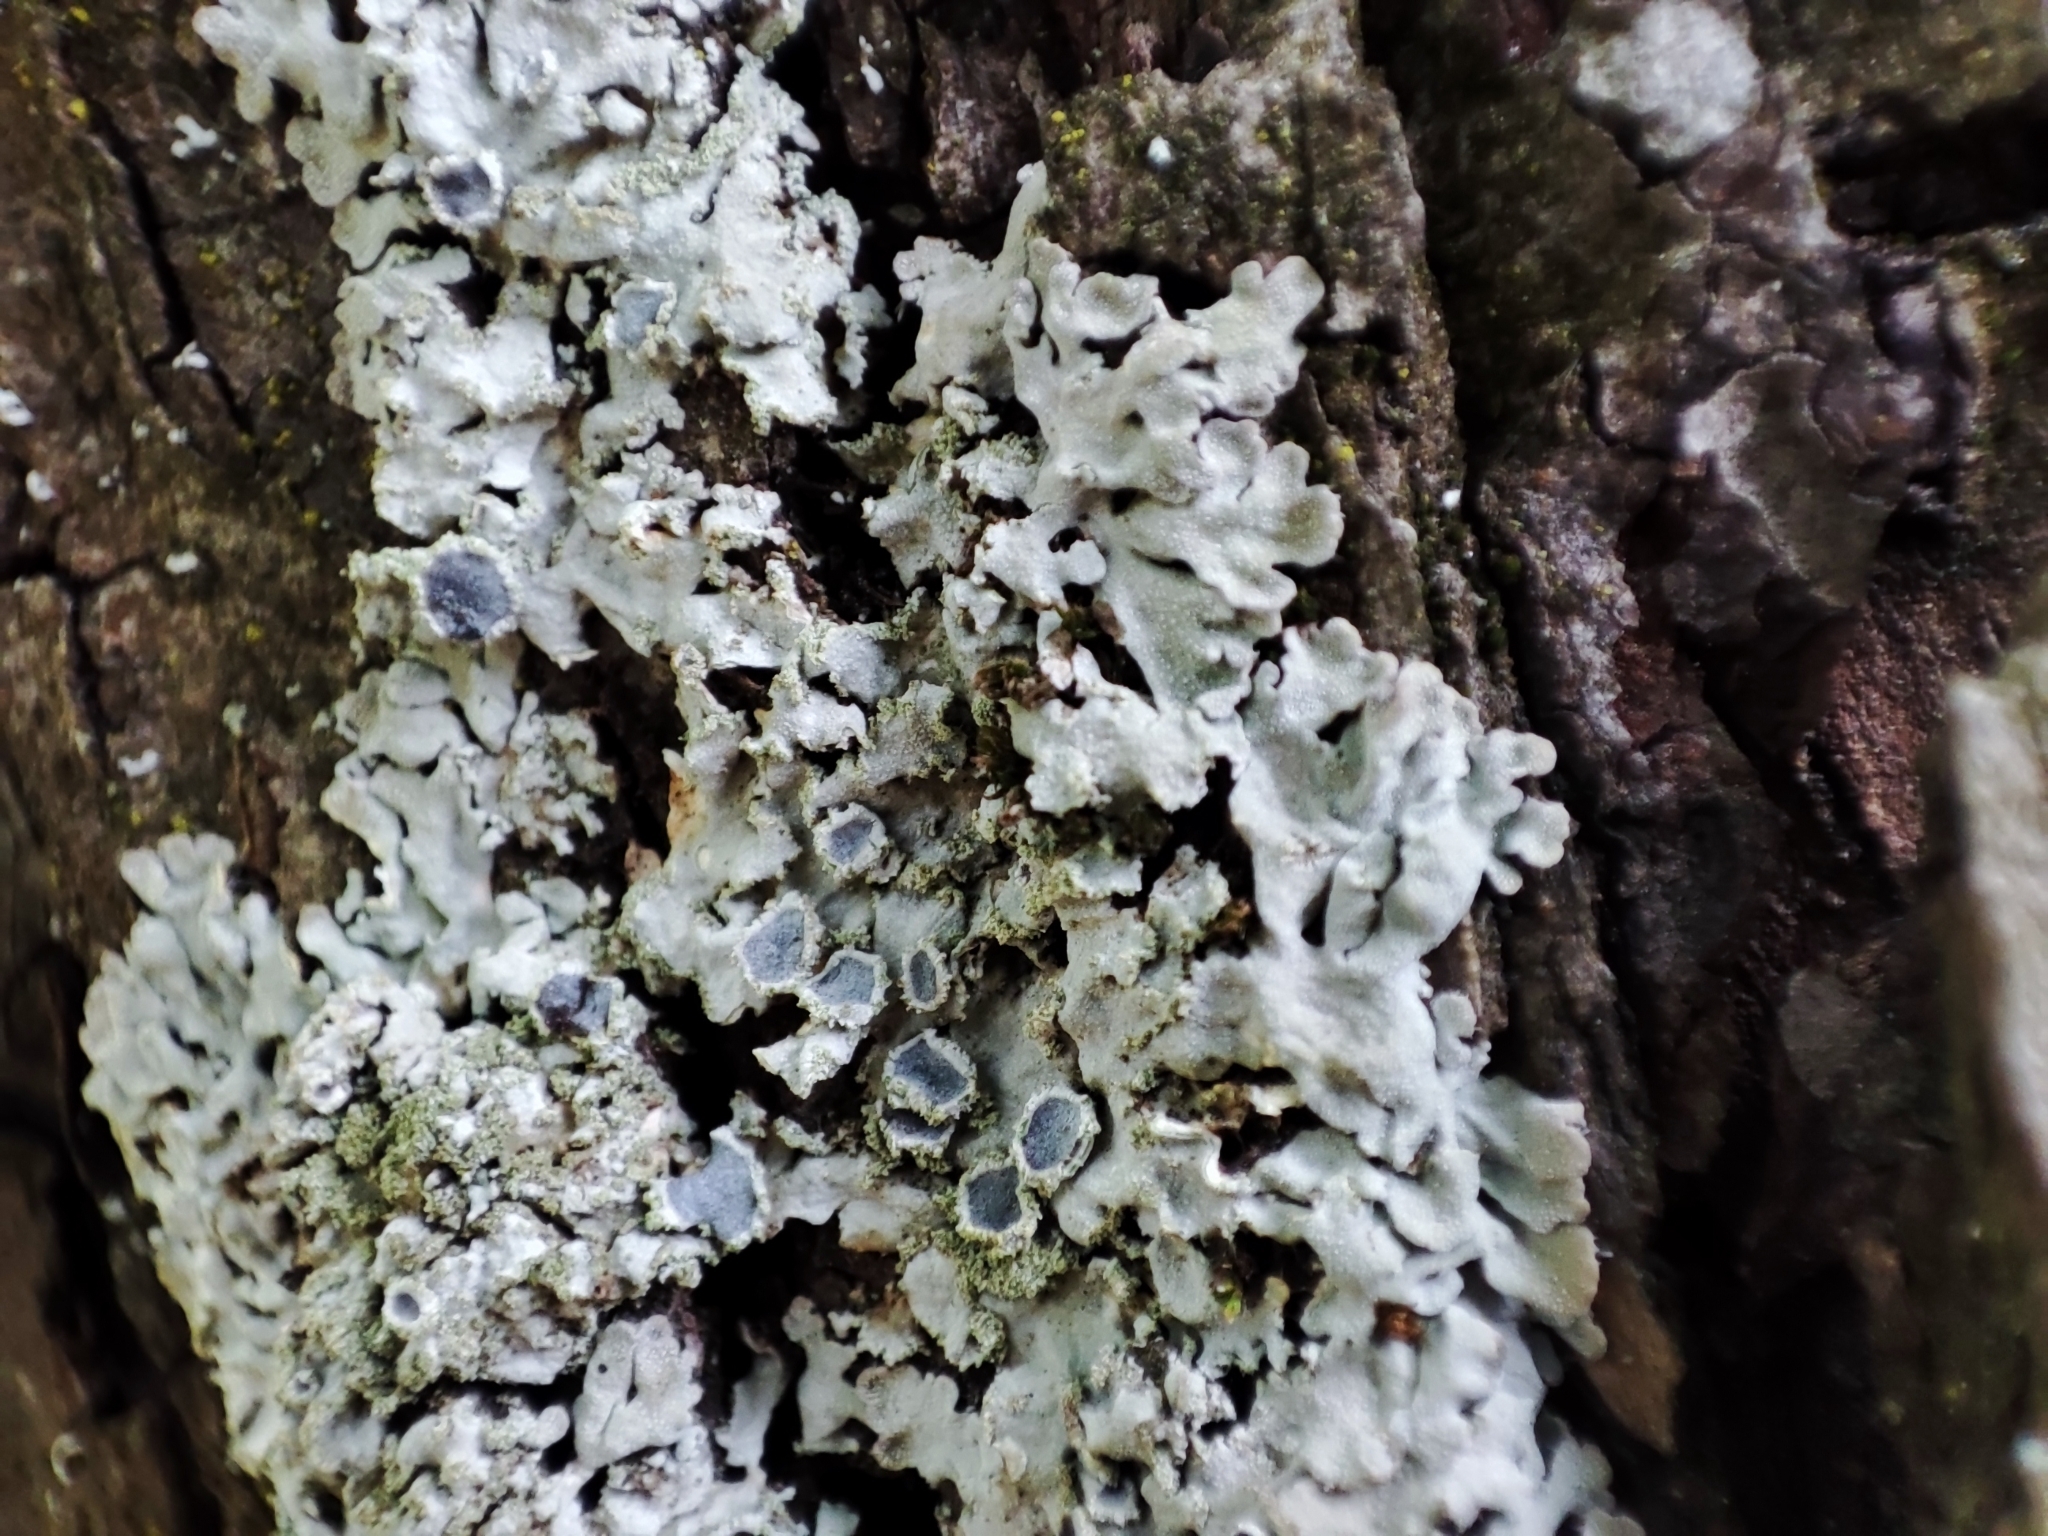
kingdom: Fungi
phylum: Ascomycota
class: Lecanoromycetes
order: Caliciales
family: Physciaceae
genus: Poeltonia
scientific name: Poeltonia grisea
